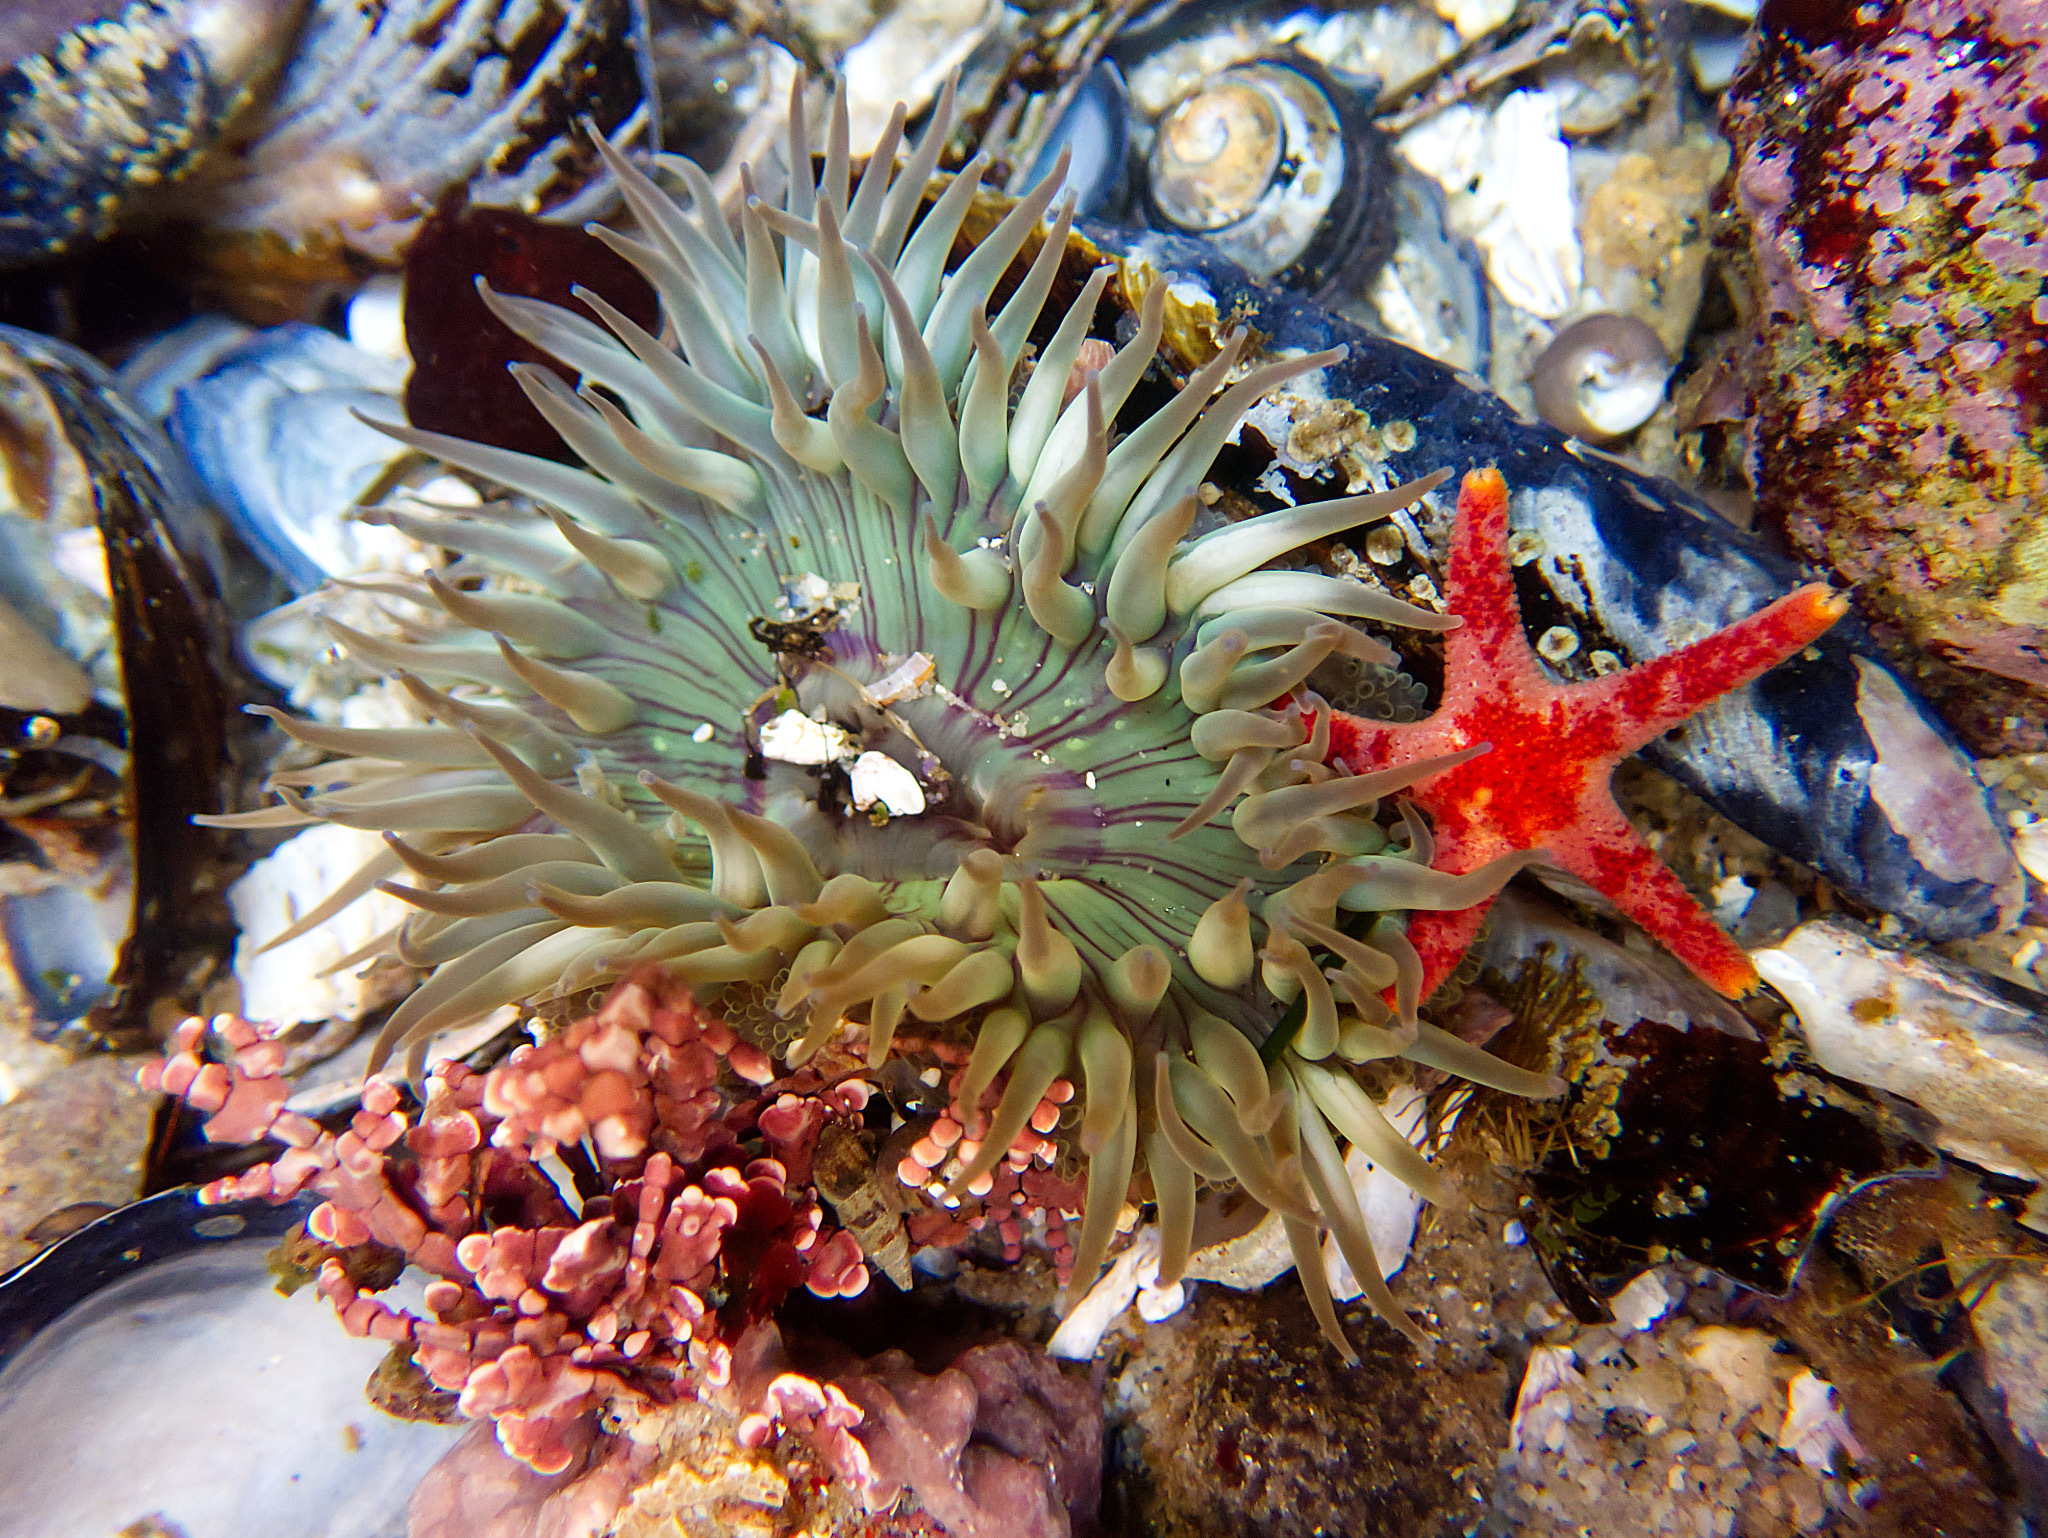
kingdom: Animalia
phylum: Cnidaria
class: Anthozoa
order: Actiniaria
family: Actiniidae
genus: Anthopleura
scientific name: Anthopleura sola
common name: Sun anemone
